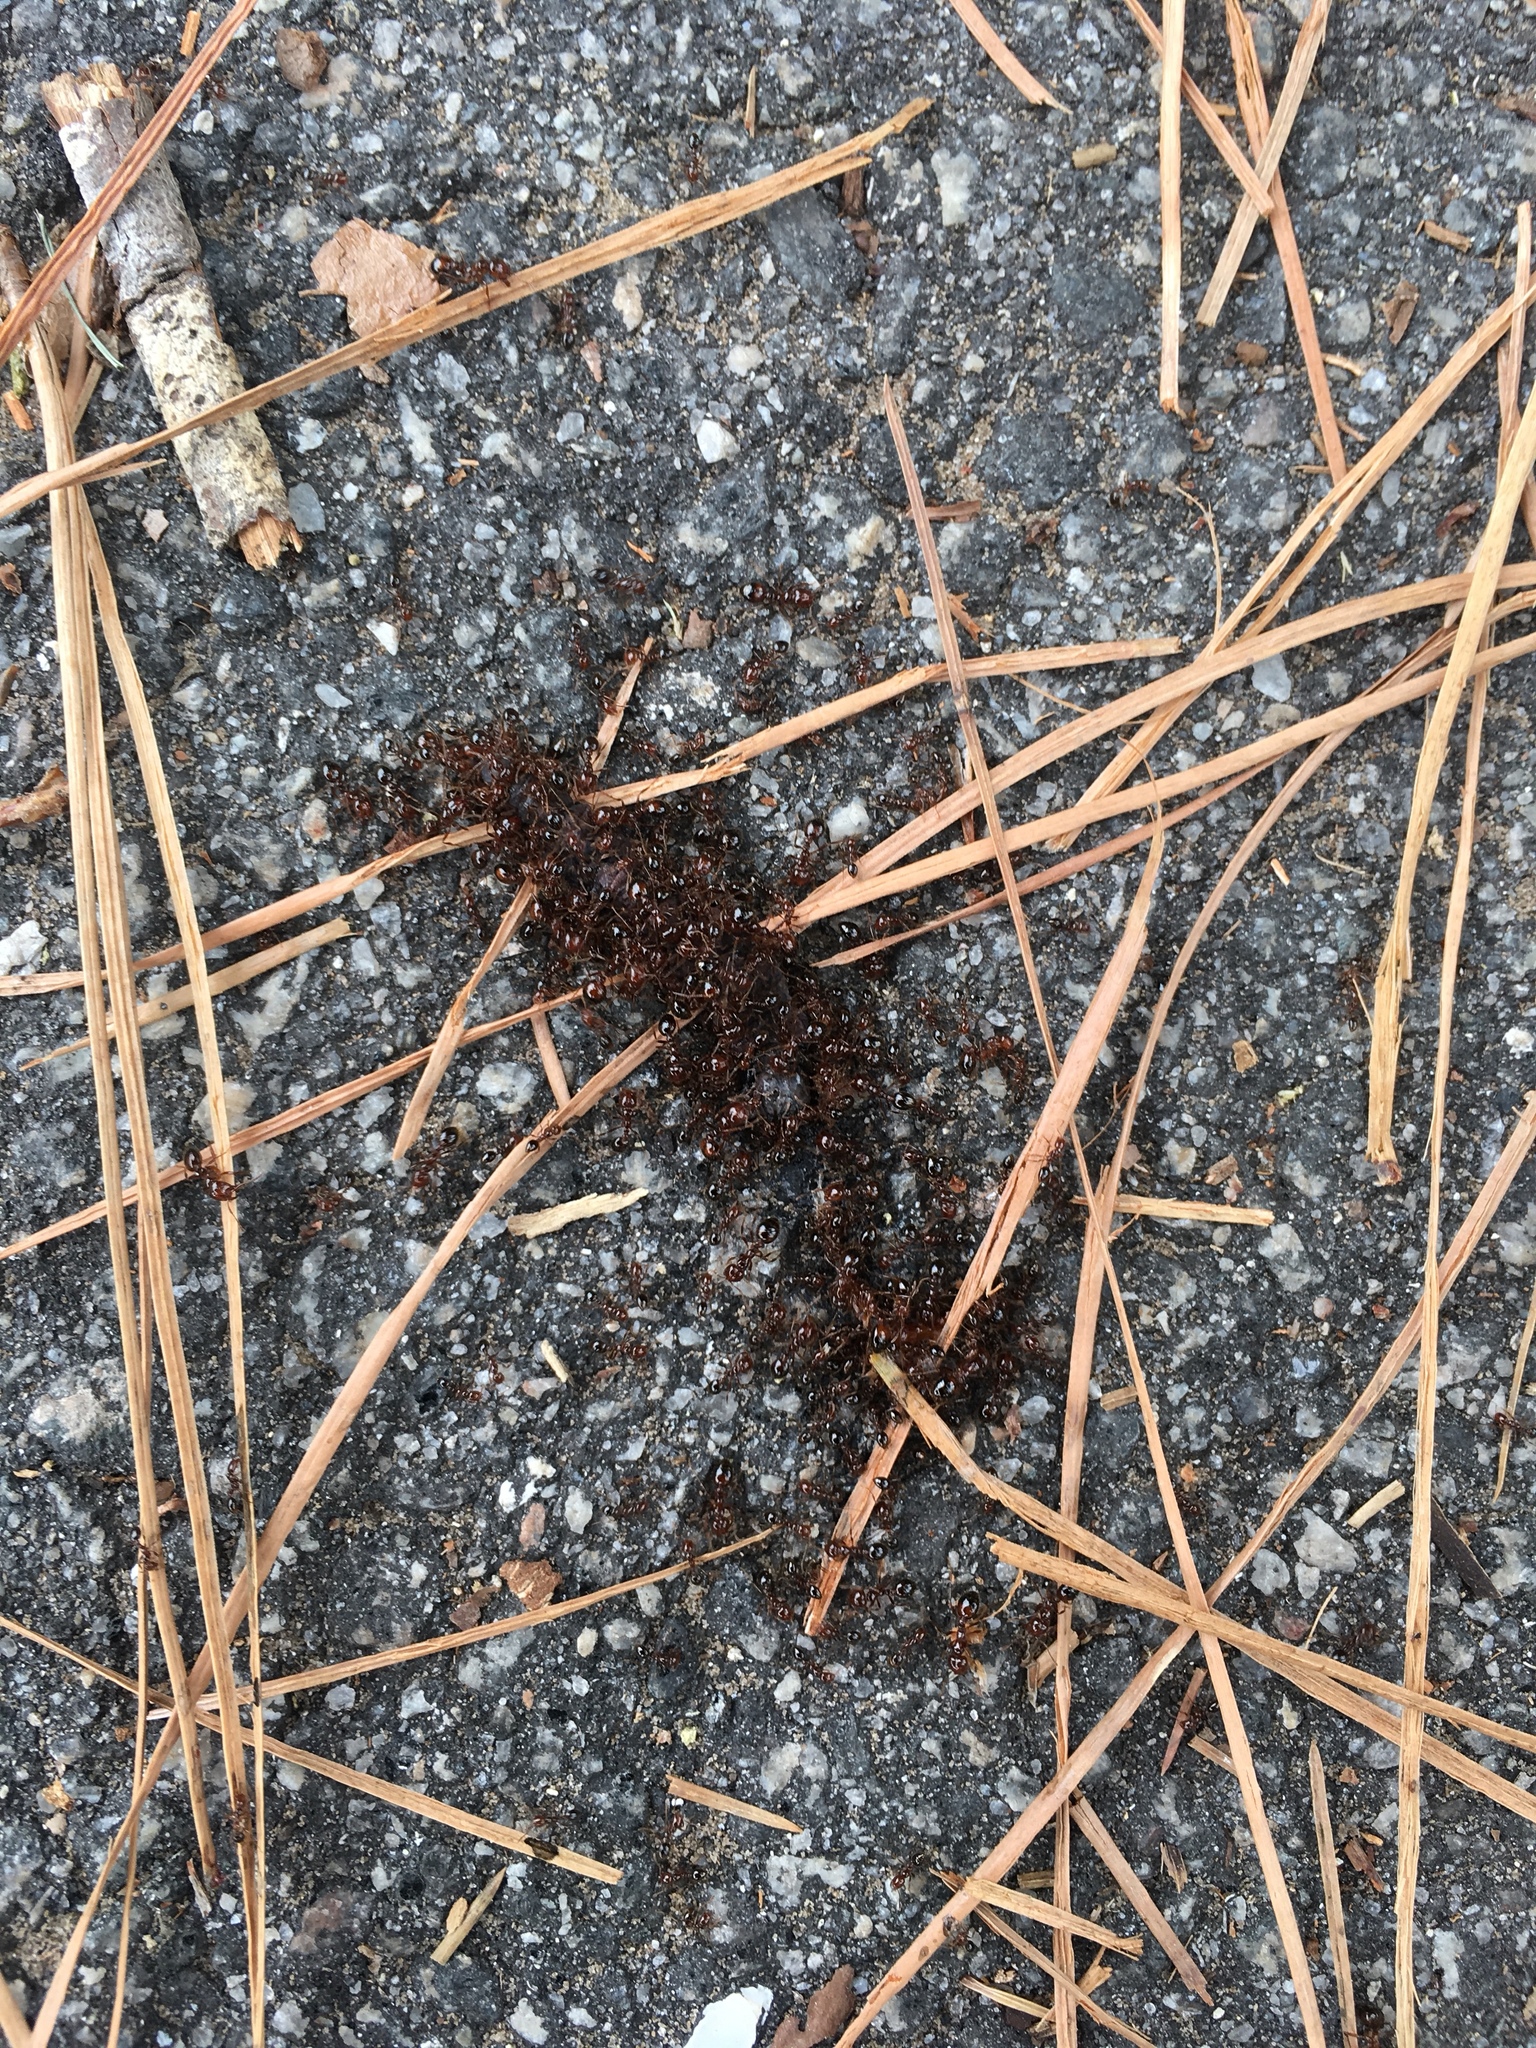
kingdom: Animalia
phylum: Arthropoda
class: Insecta
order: Hymenoptera
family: Formicidae
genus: Solenopsis
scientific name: Solenopsis invicta
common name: Red imported fire ant
